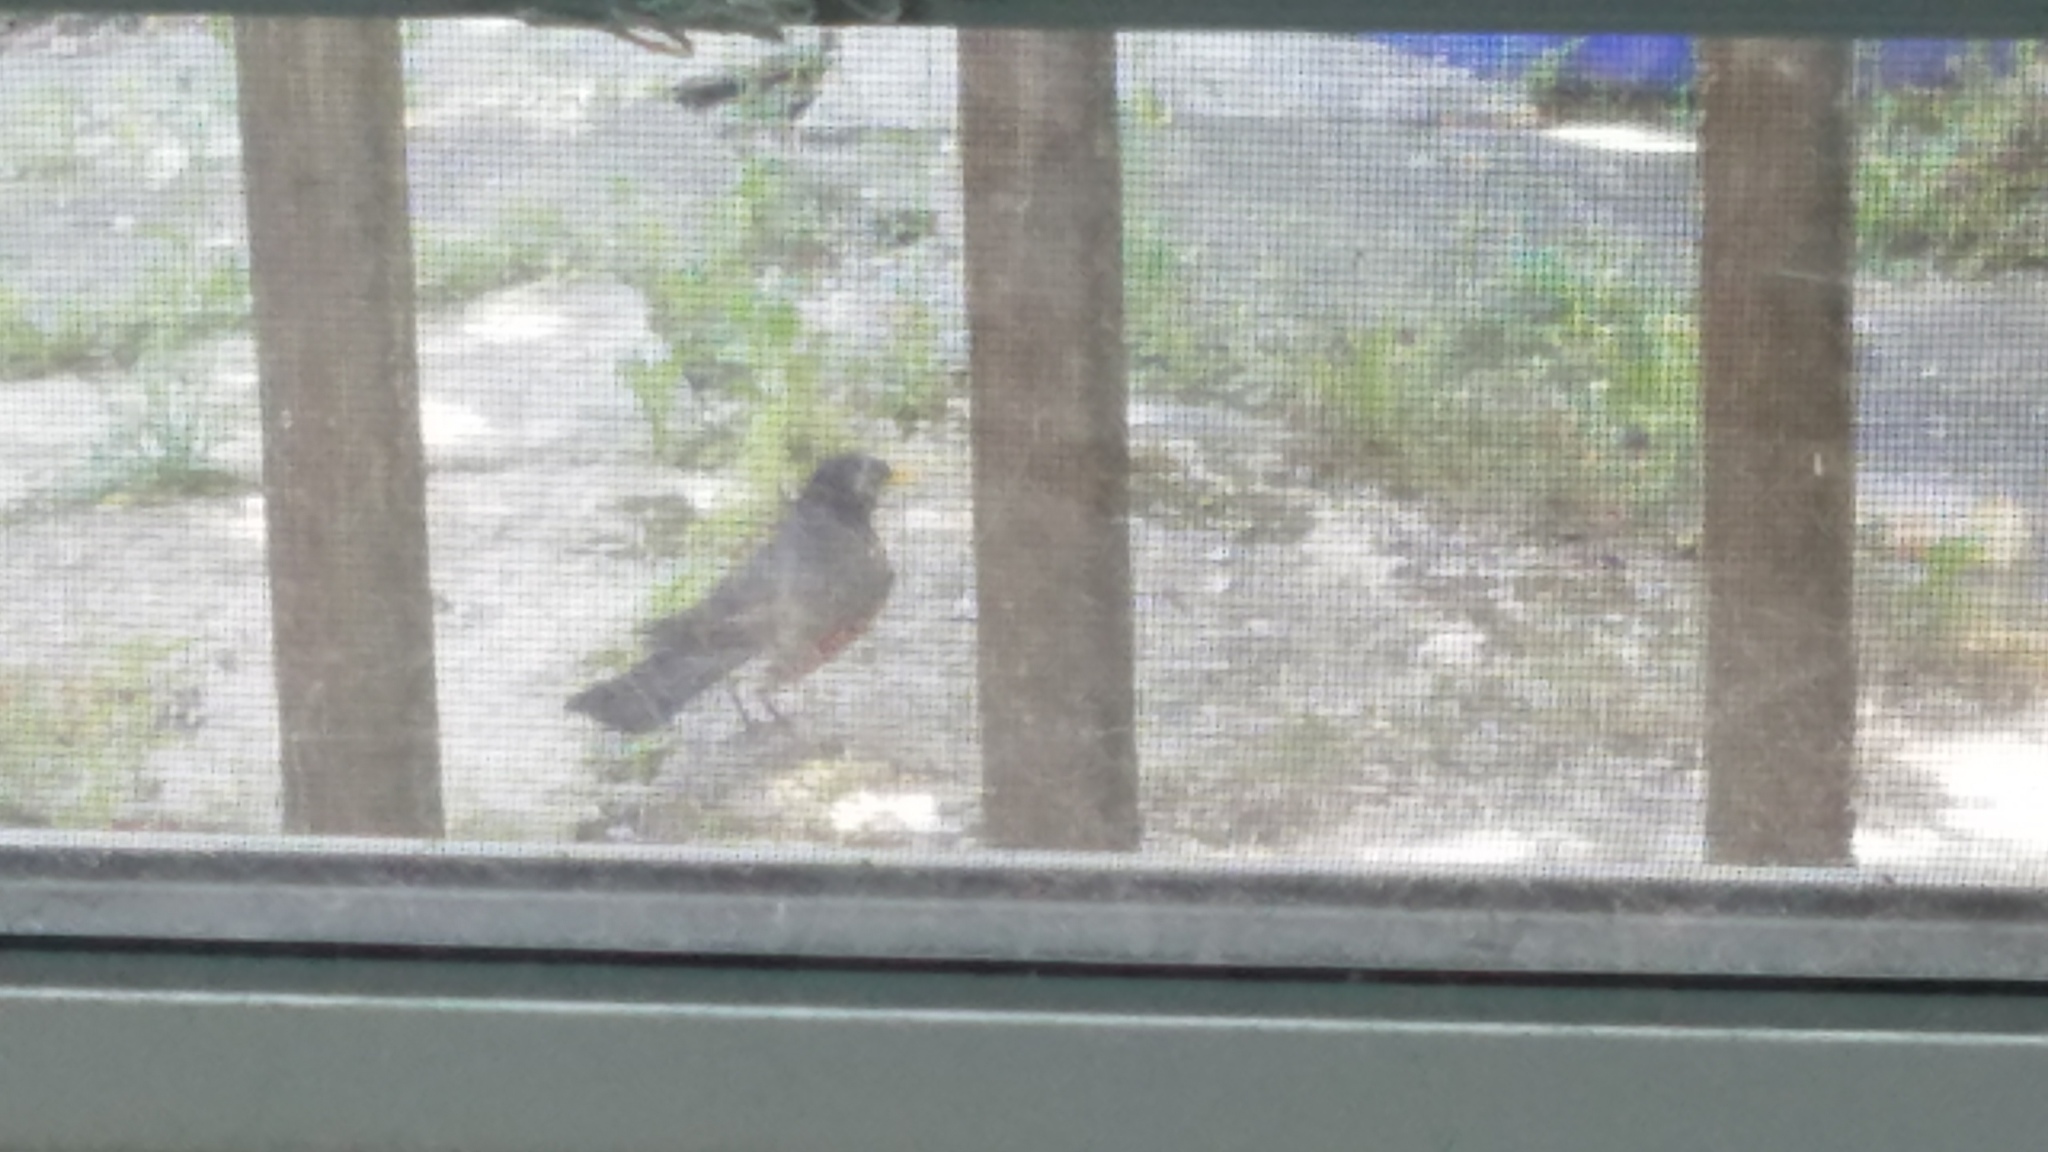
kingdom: Animalia
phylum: Chordata
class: Aves
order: Passeriformes
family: Turdidae
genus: Turdus
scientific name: Turdus migratorius
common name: American robin
